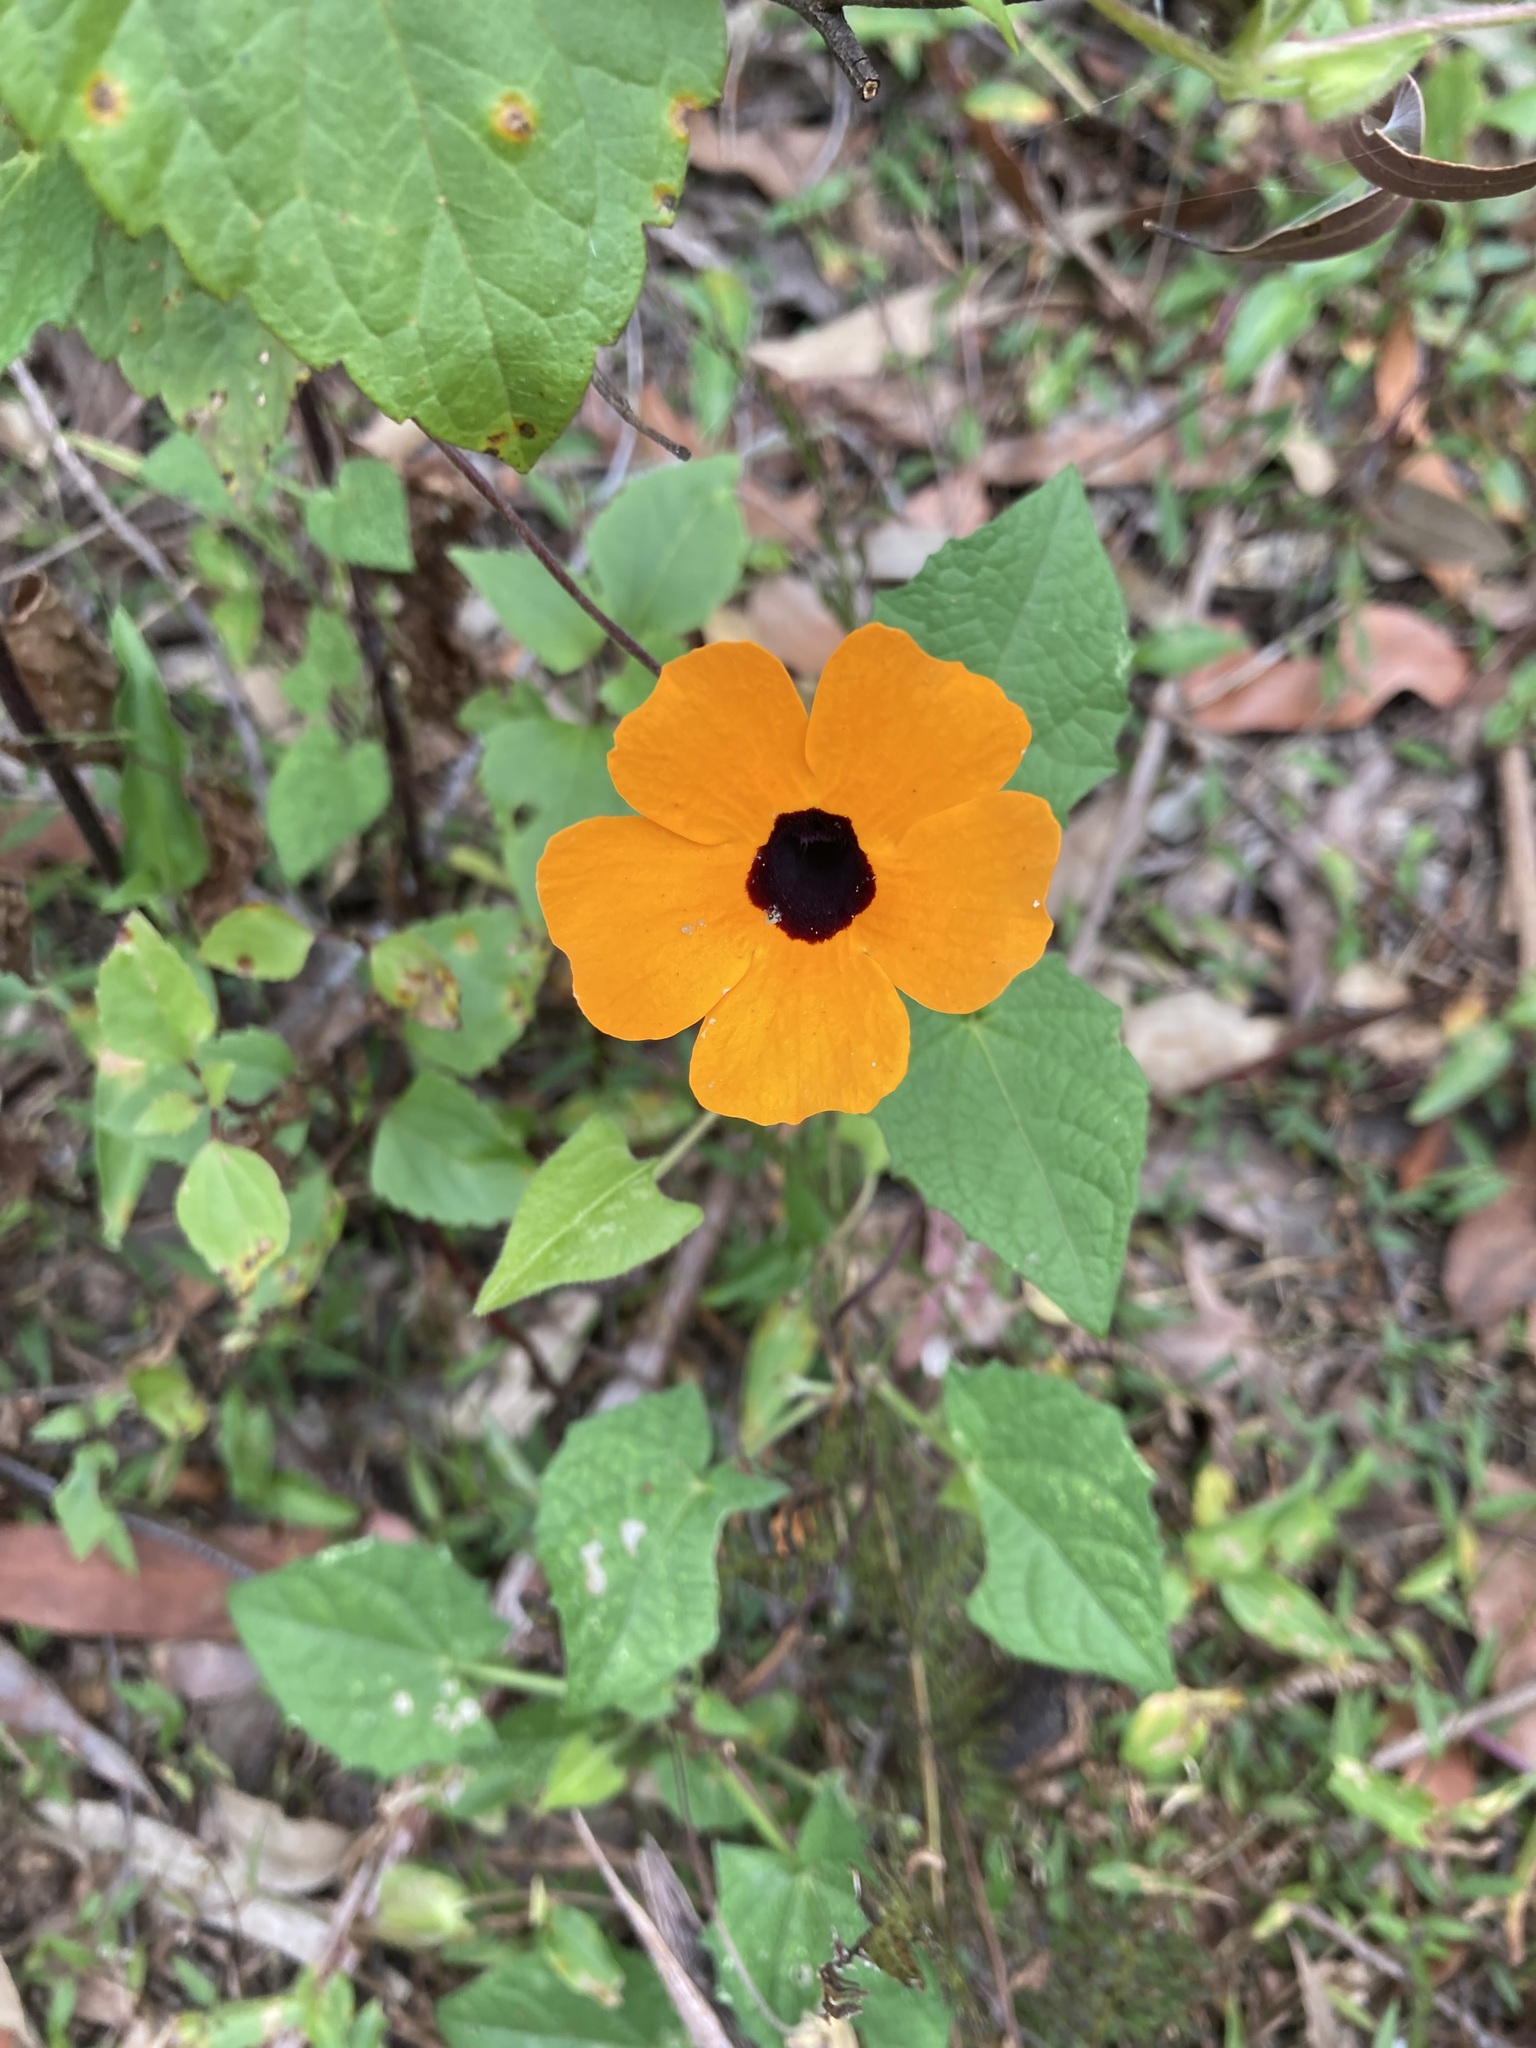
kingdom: Plantae
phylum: Tracheophyta
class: Magnoliopsida
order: Lamiales
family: Acanthaceae
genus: Thunbergia
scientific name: Thunbergia alata
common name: Blackeyed susan vine
